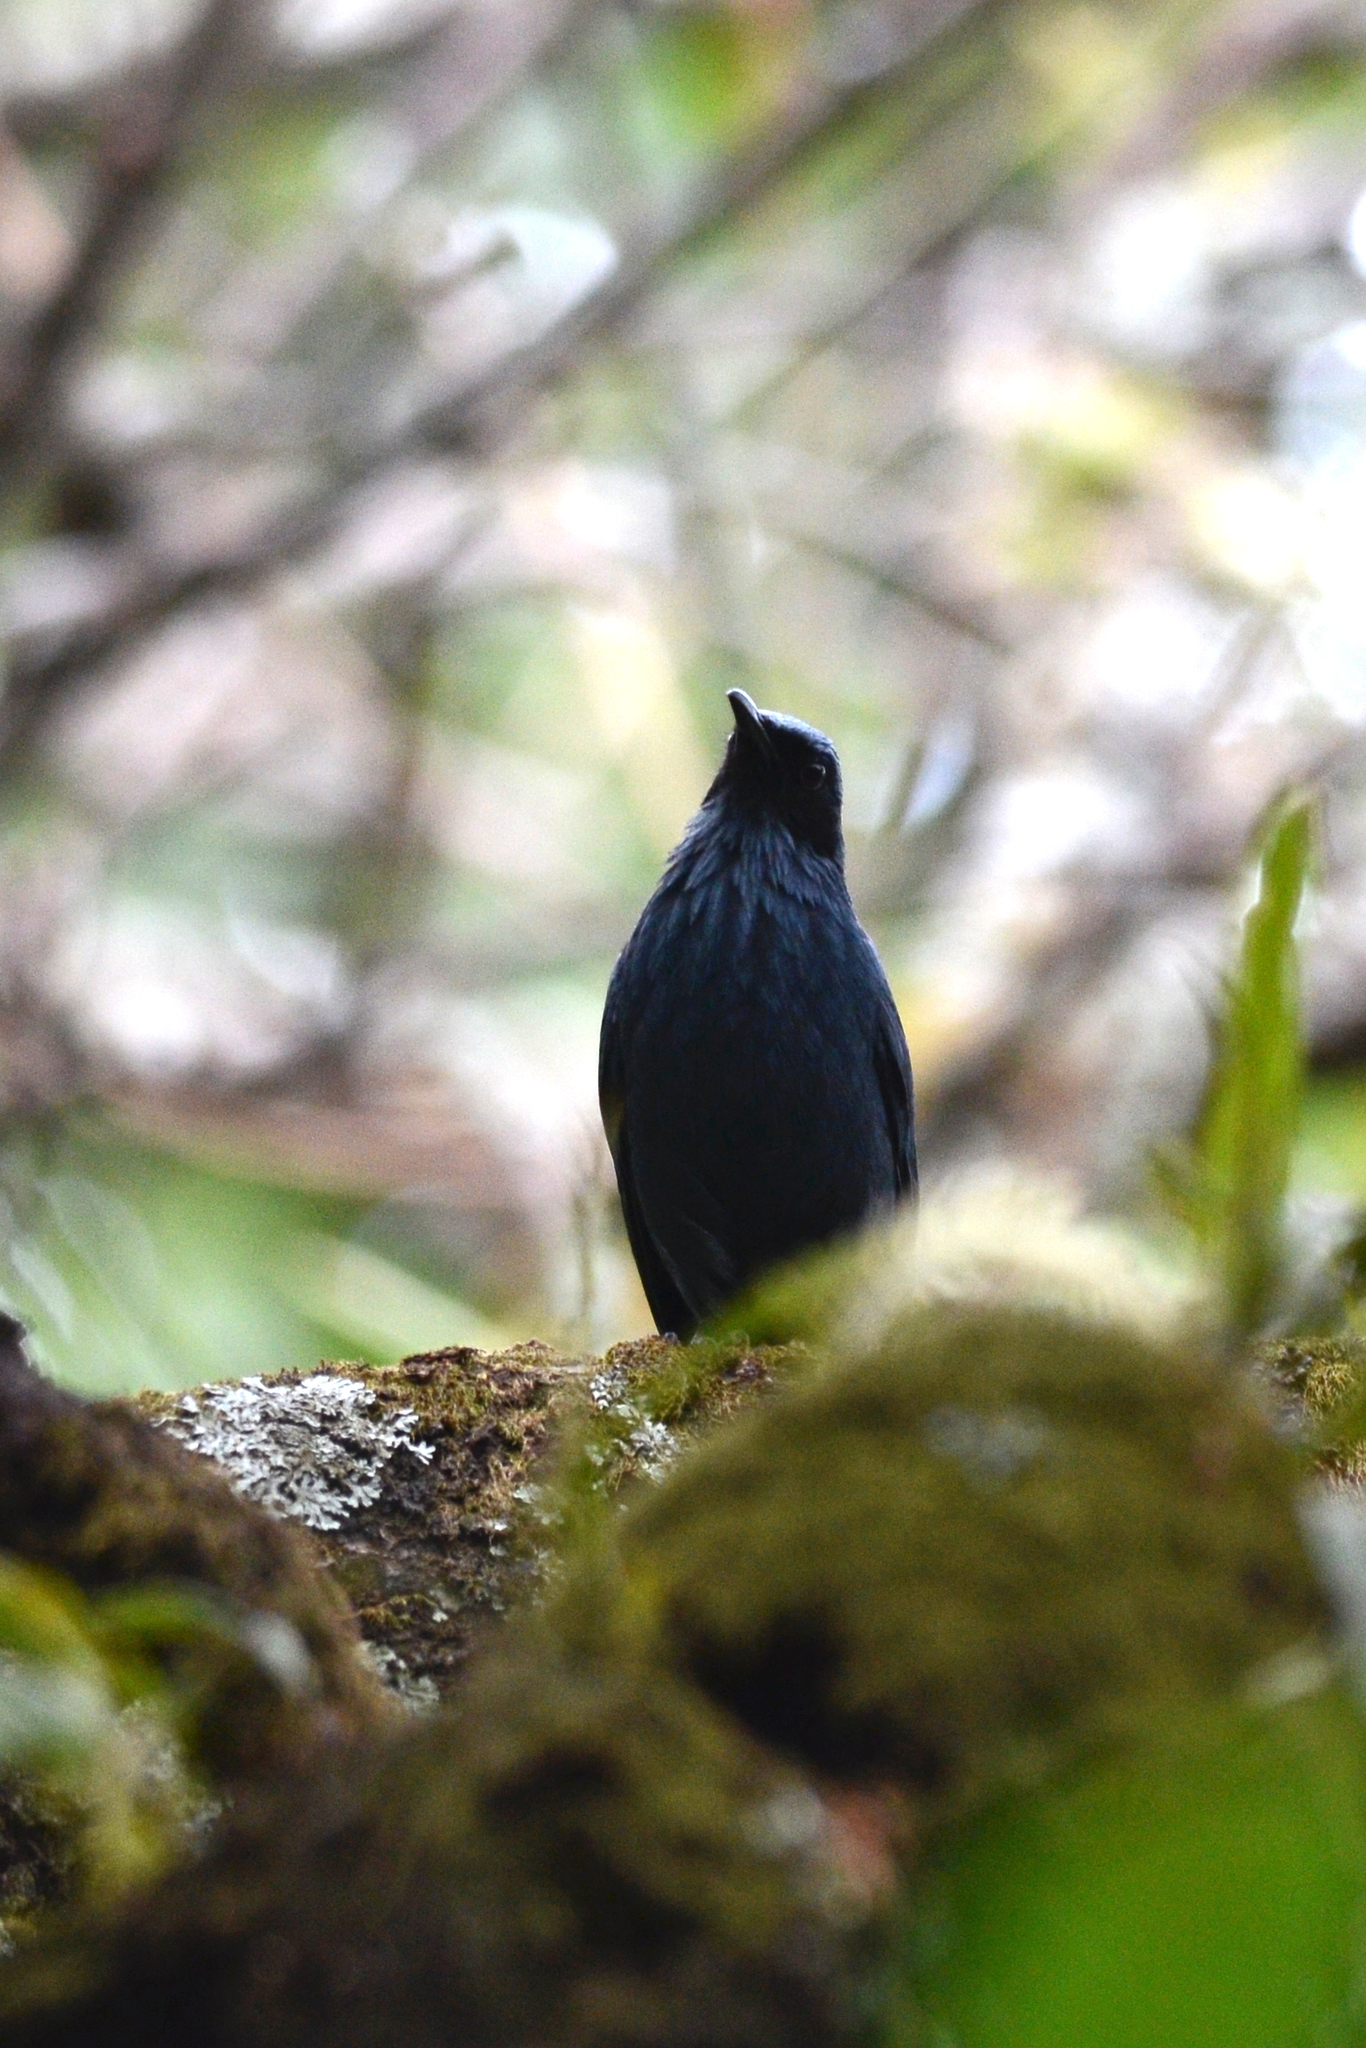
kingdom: Animalia
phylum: Chordata
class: Aves
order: Passeriformes
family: Mimidae
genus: Melanotis
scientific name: Melanotis caerulescens
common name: Blue mockingbird
